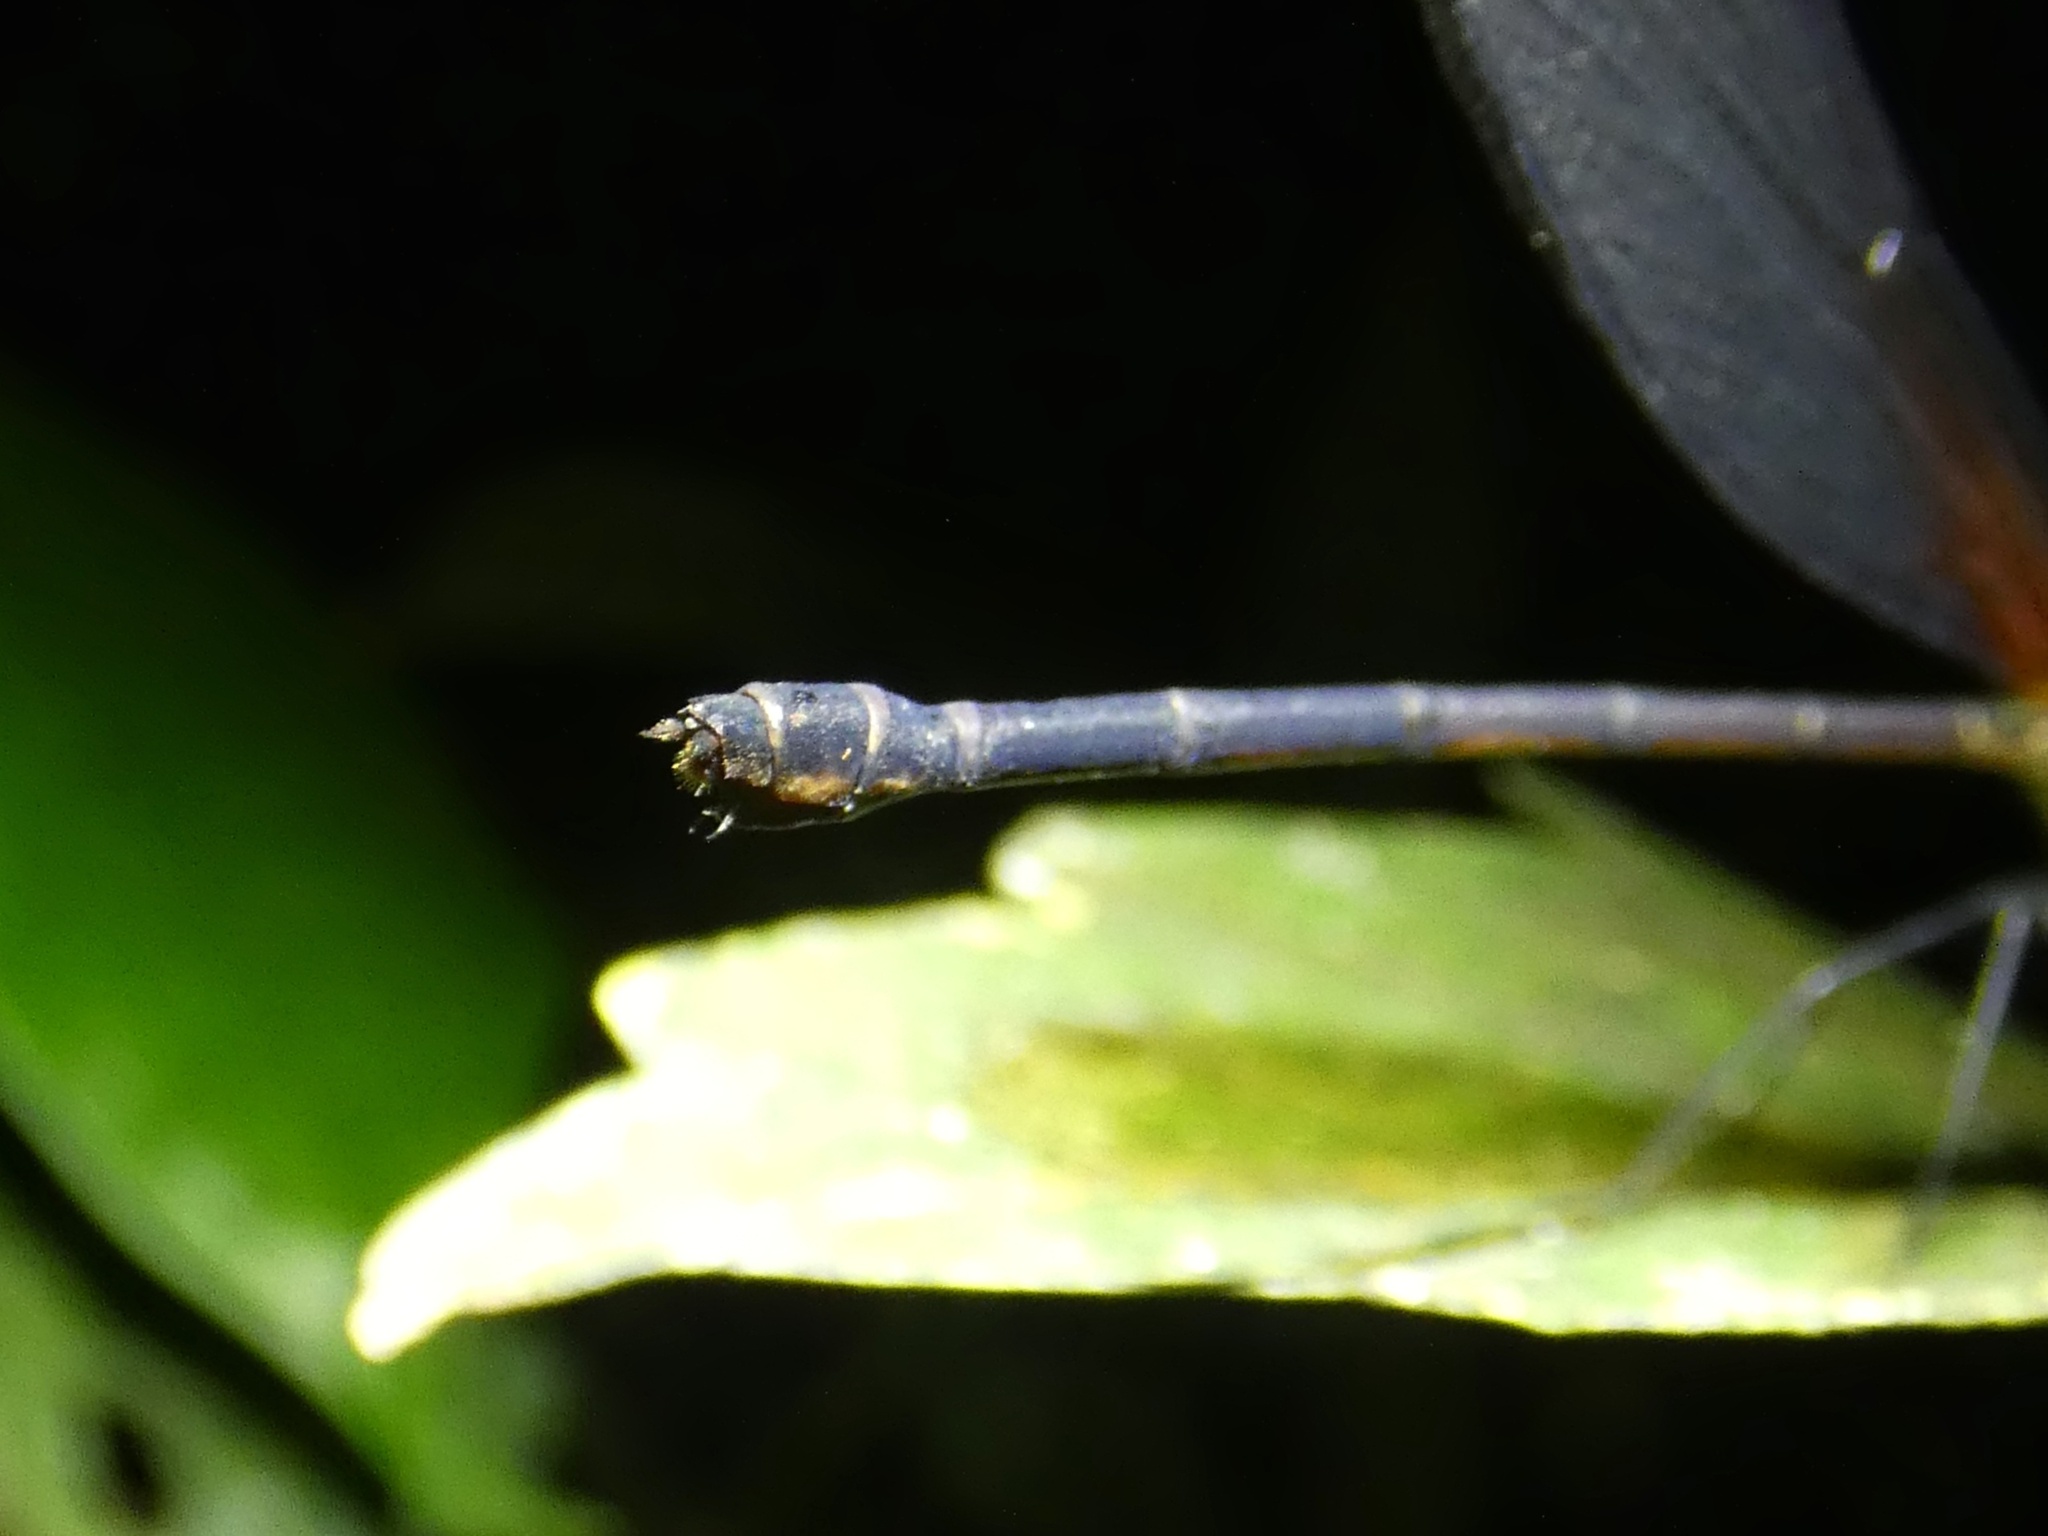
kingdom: Animalia
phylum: Arthropoda
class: Insecta
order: Odonata
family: Calopterygidae
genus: Hetaerina
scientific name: Hetaerina miniata
